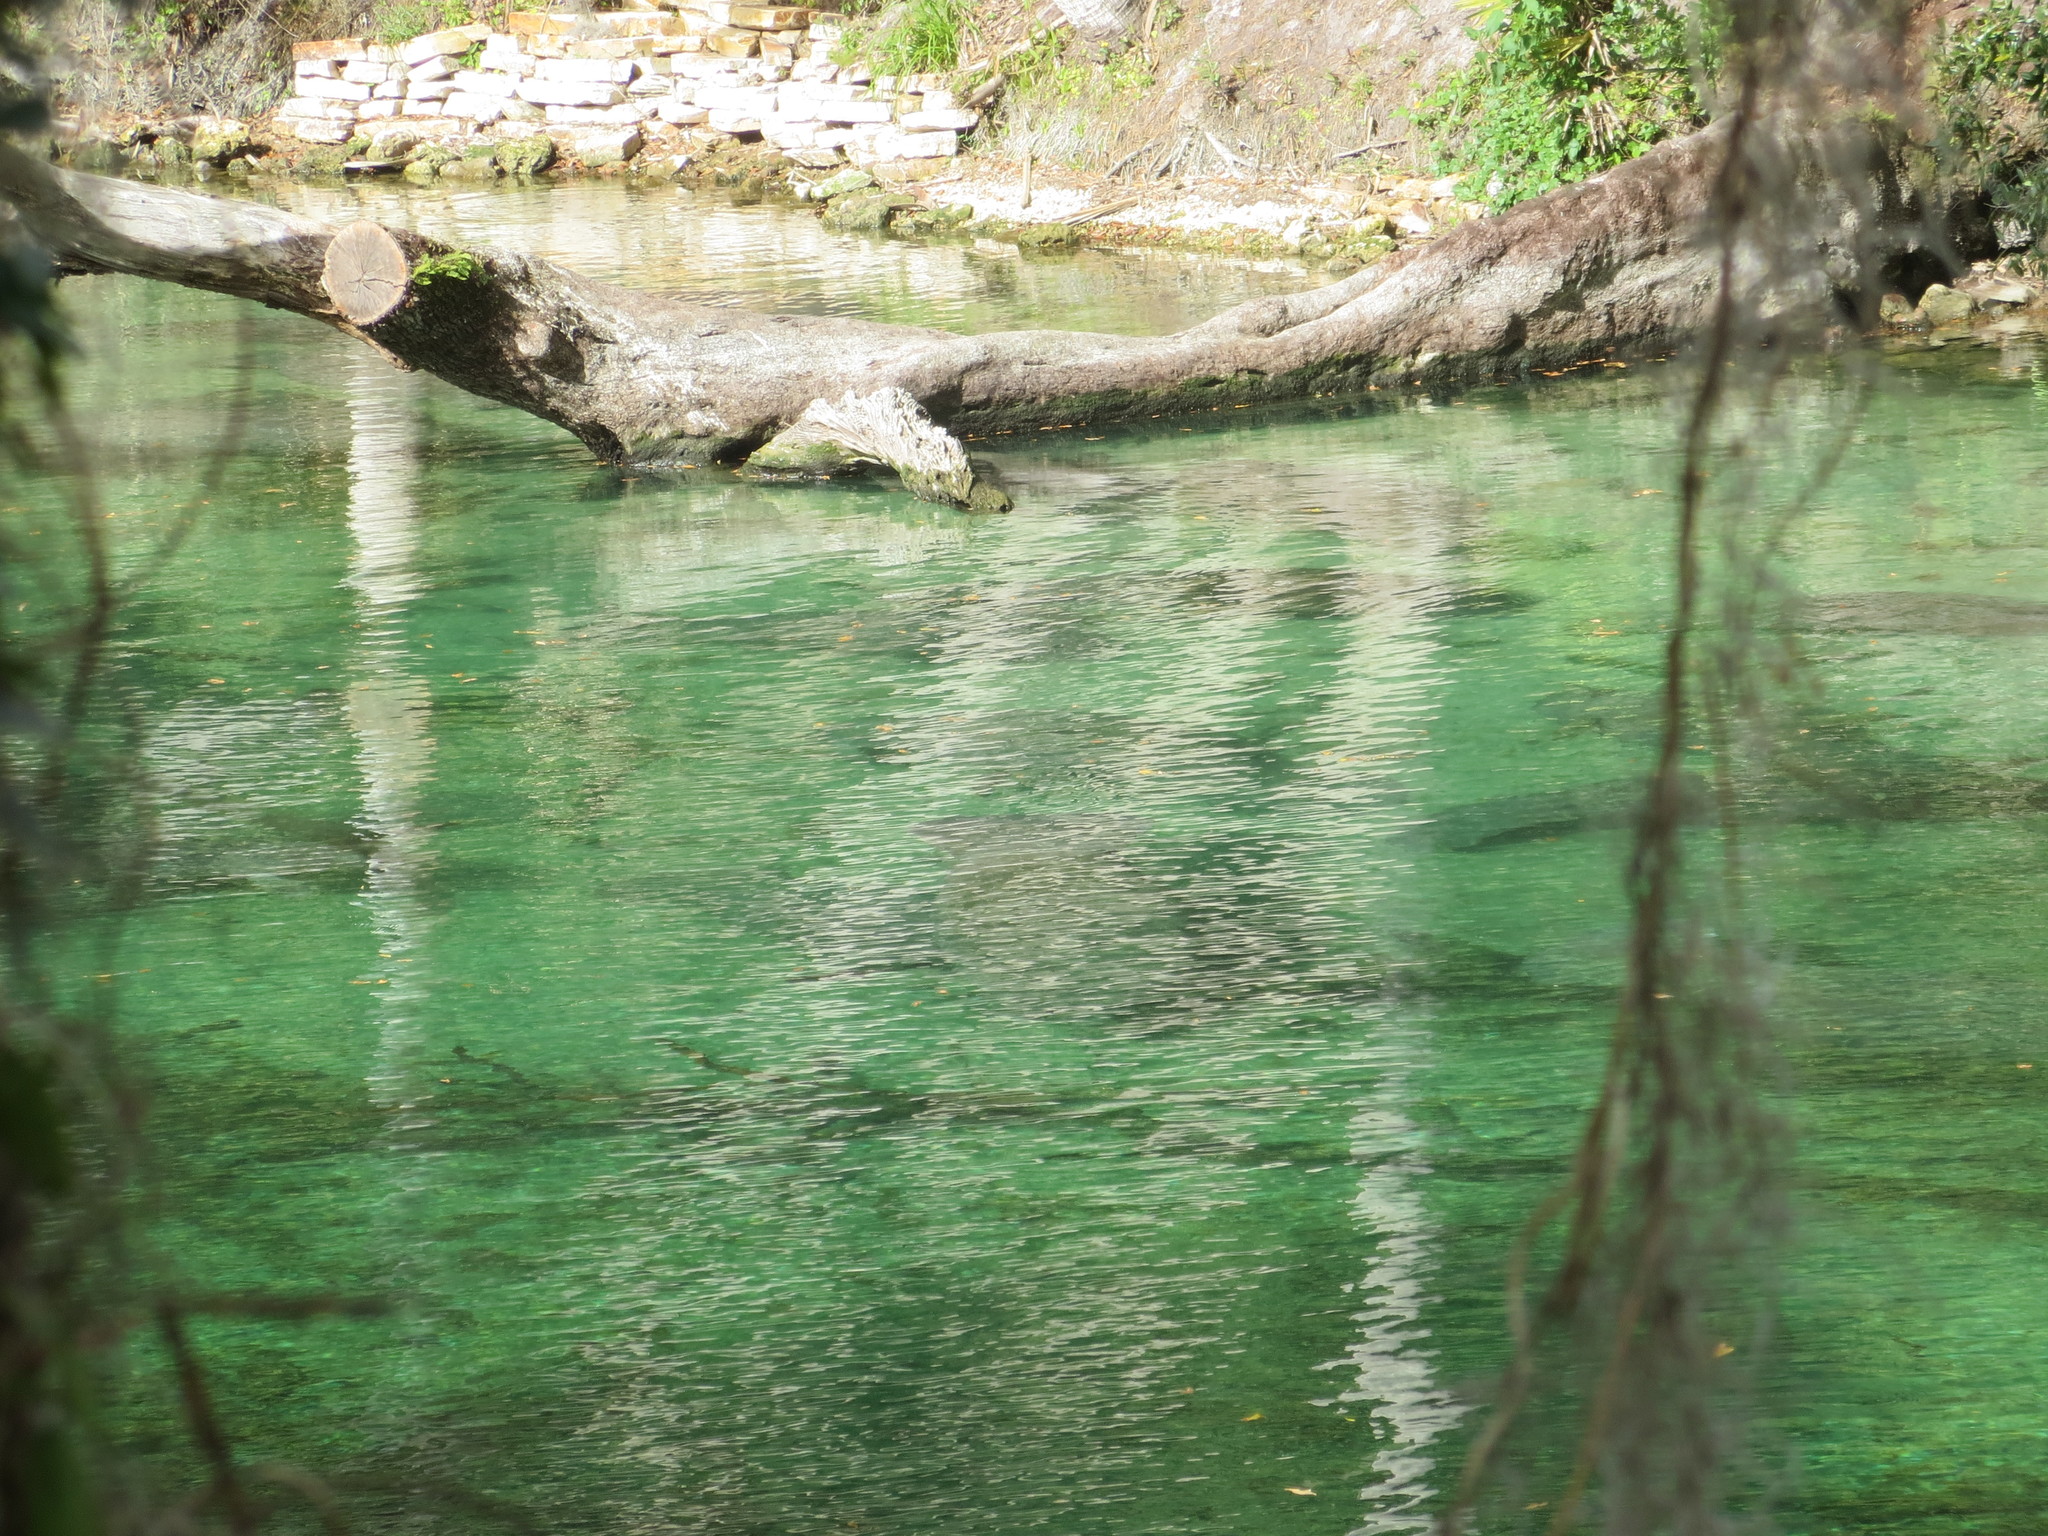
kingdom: Animalia
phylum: Chordata
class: Mammalia
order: Sirenia
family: Trichechidae
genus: Trichechus
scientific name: Trichechus manatus
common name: West indian manatee
